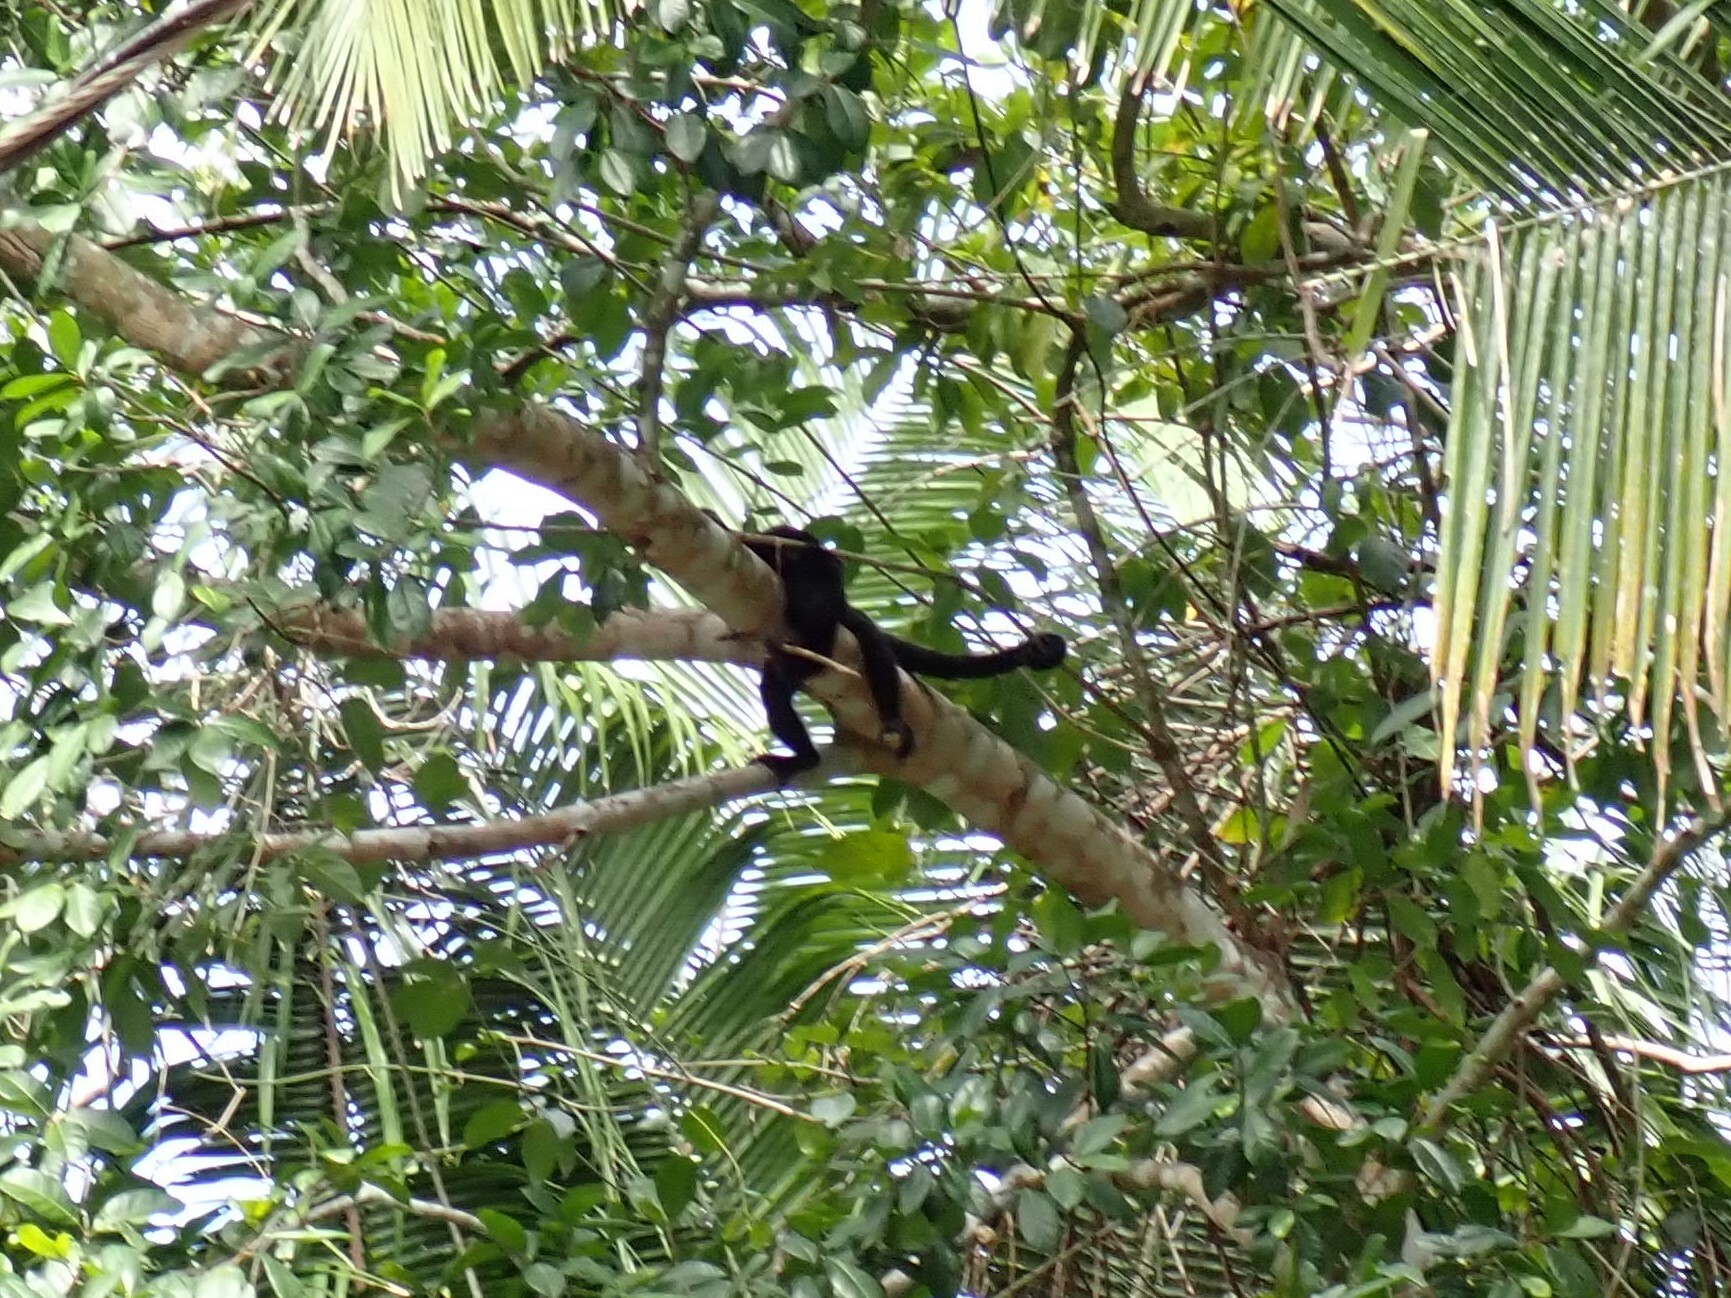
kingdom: Animalia
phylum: Chordata
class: Mammalia
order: Primates
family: Atelidae
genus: Alouatta
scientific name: Alouatta pigra
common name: Guatemalan black howler
